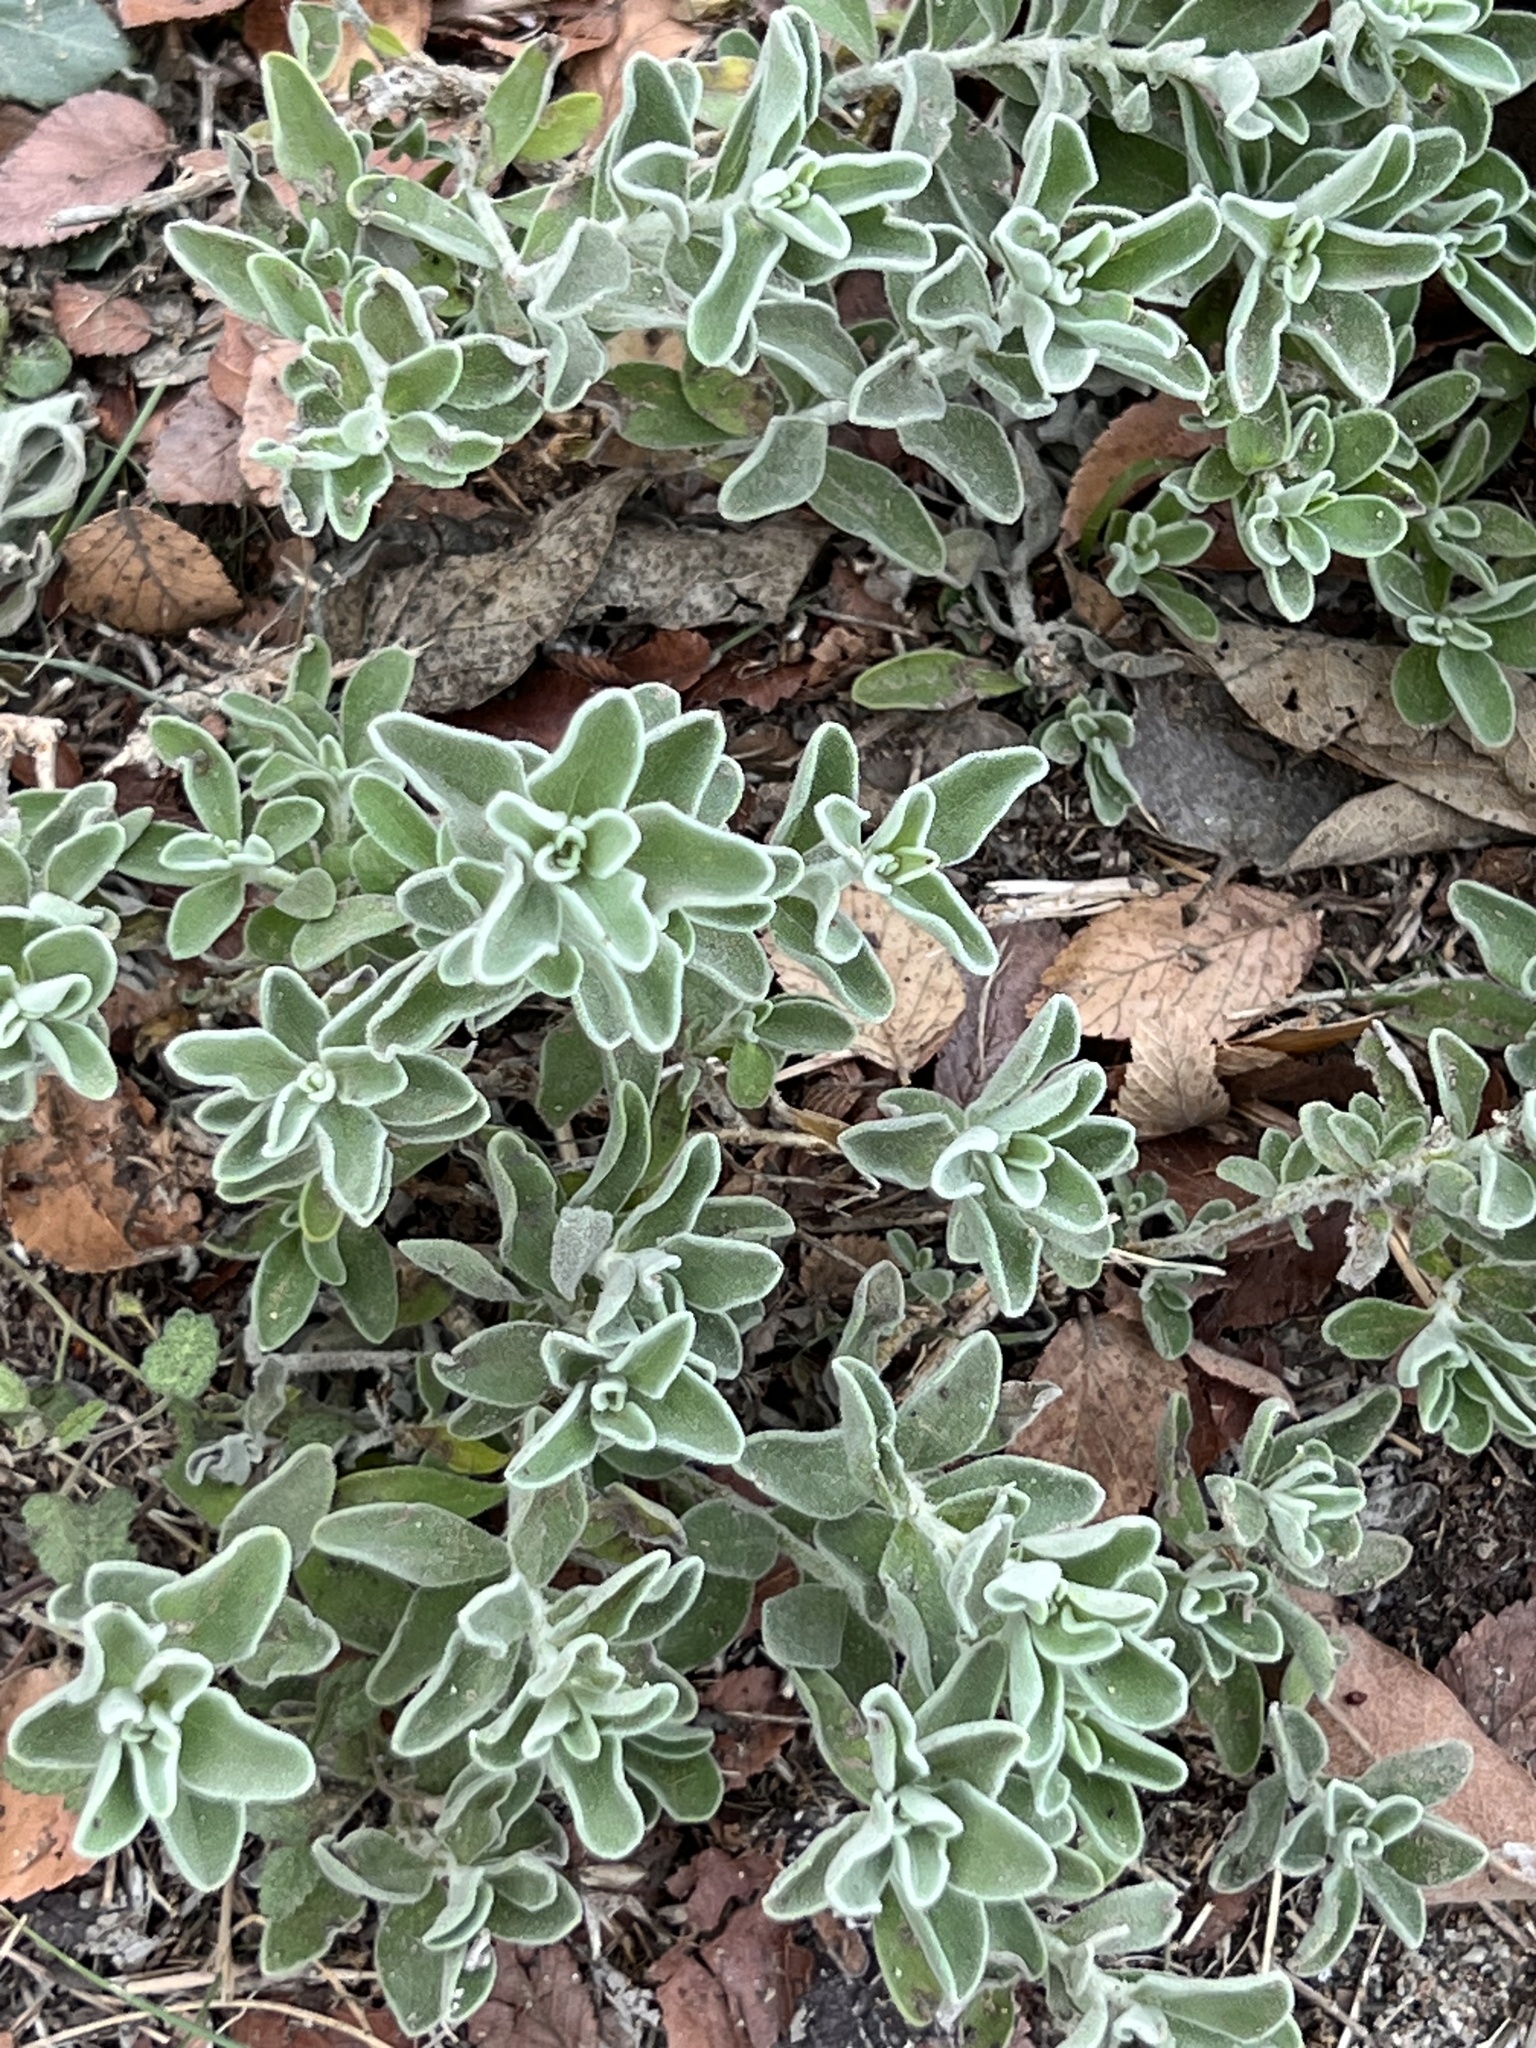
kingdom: Plantae
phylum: Tracheophyta
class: Magnoliopsida
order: Lamiales
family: Scrophulariaceae
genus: Leucophyllum
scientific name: Leucophyllum frutescens
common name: Texas silverleaf
